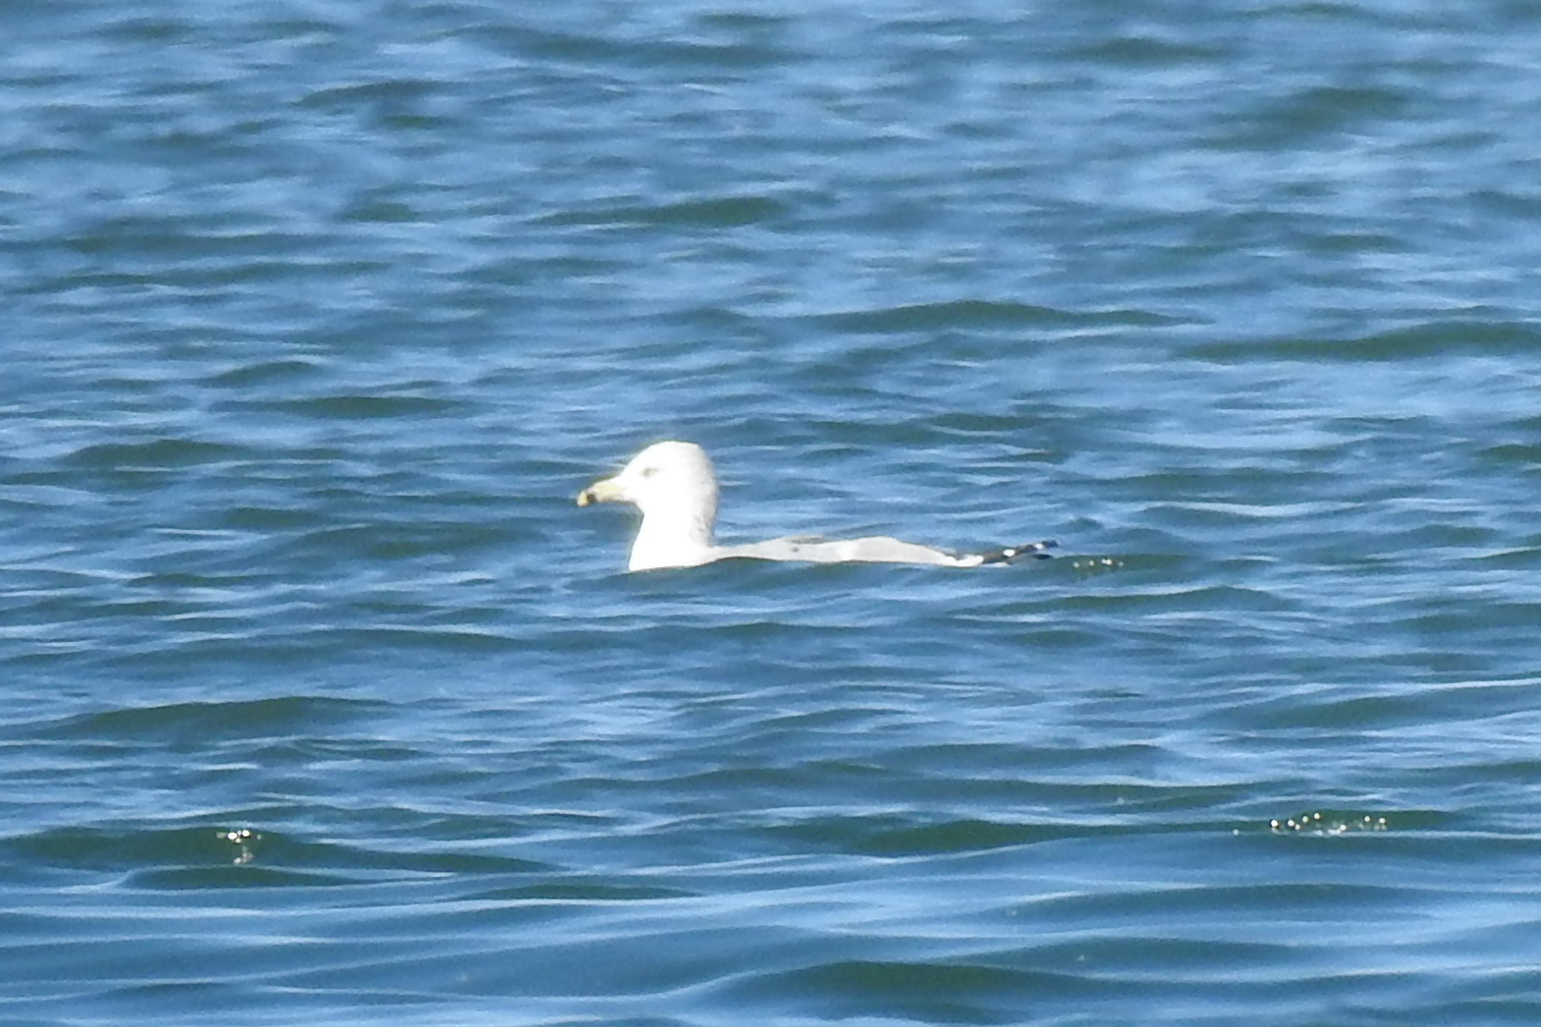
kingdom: Animalia
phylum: Chordata
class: Aves
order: Charadriiformes
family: Laridae
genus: Larus
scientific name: Larus delawarensis
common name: Ring-billed gull
